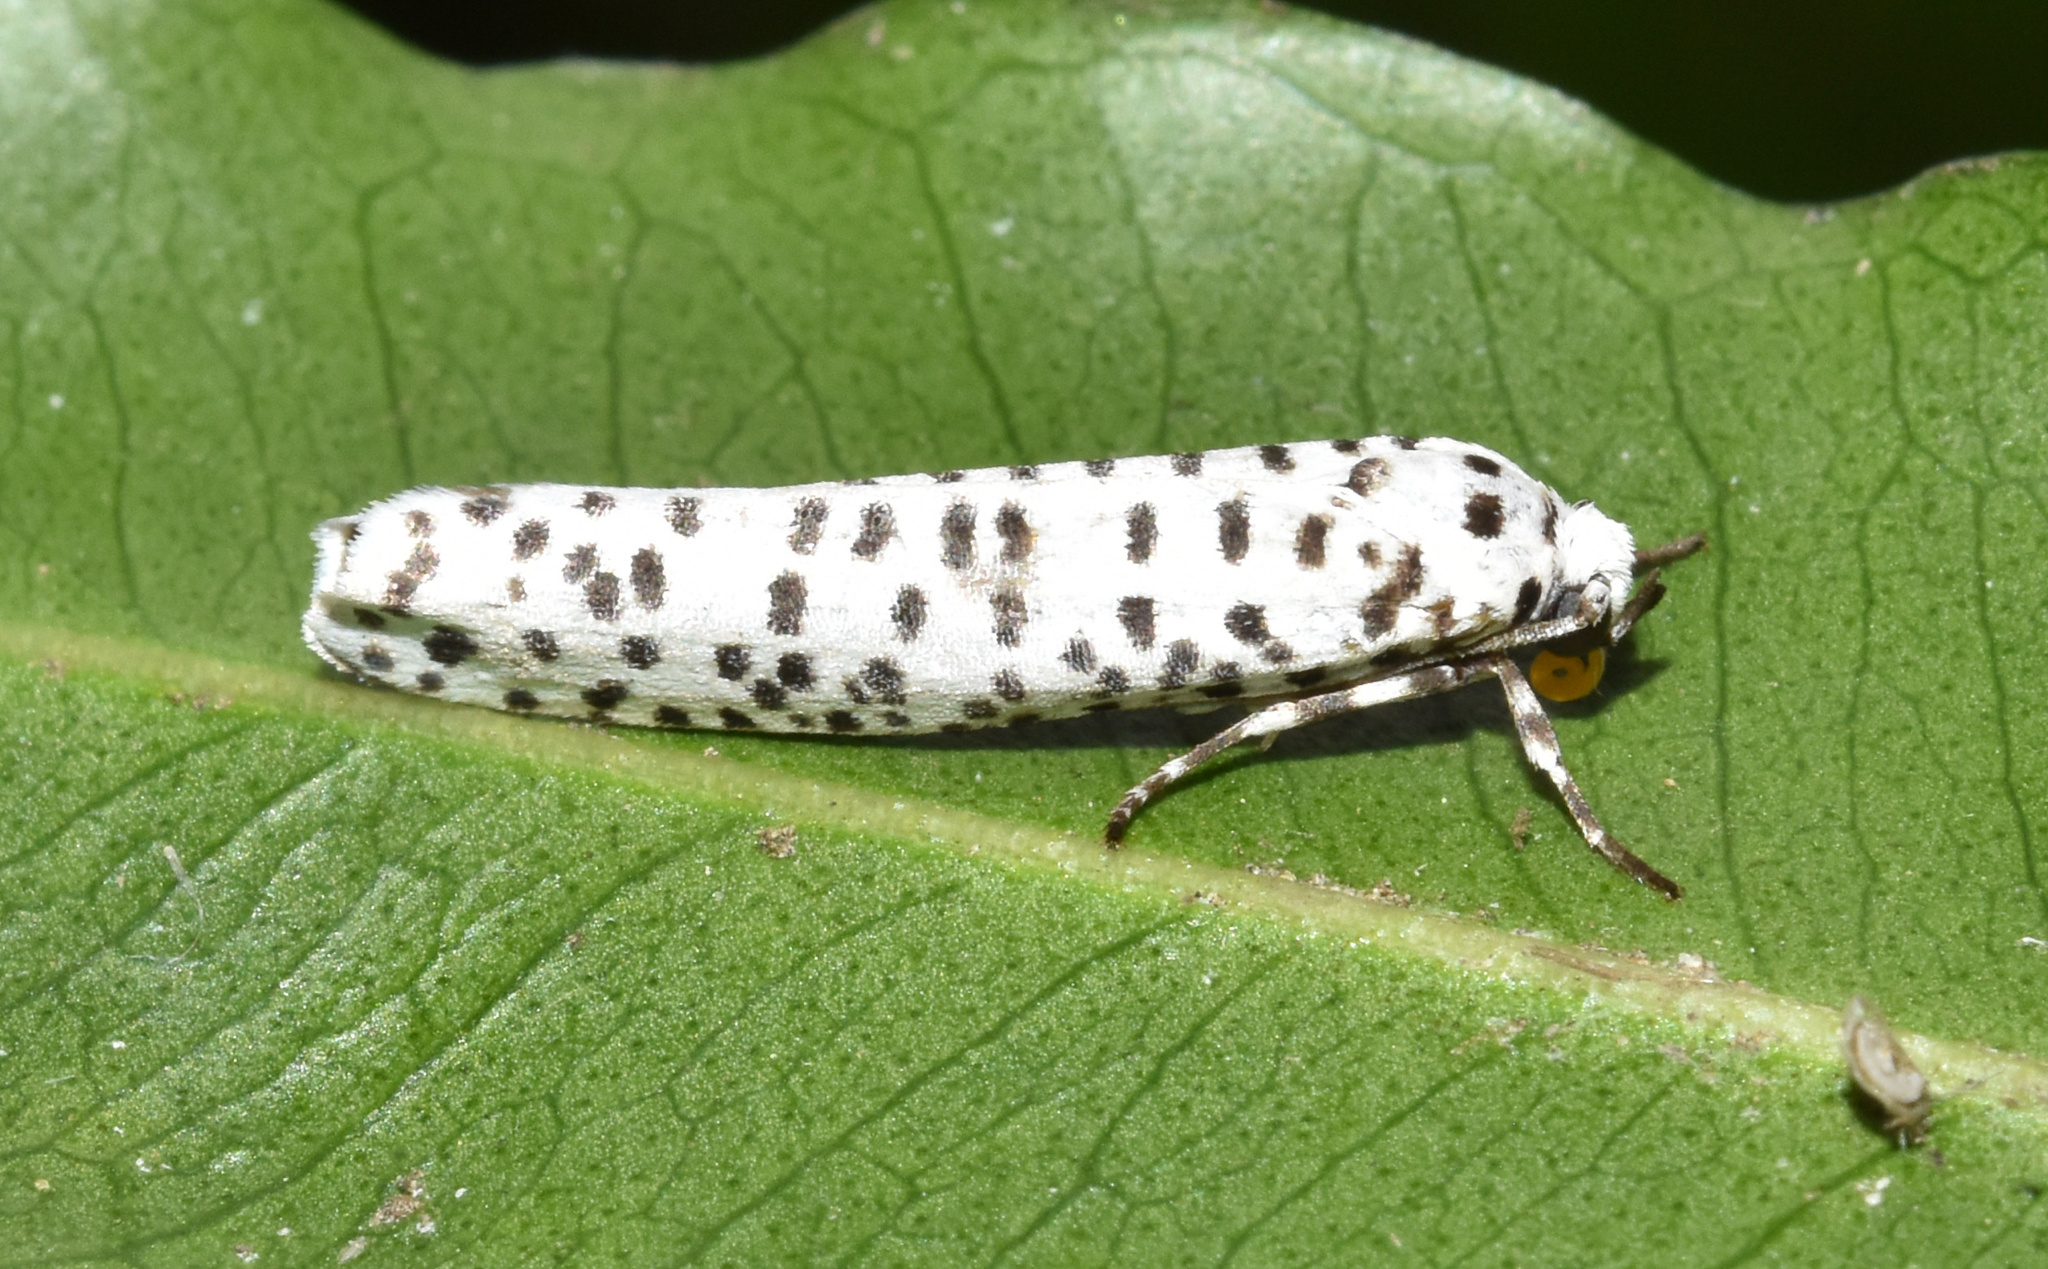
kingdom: Animalia
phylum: Arthropoda
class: Insecta
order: Lepidoptera
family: Yponomeutidae
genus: Yponomeuta
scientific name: Yponomeuta strigillata
